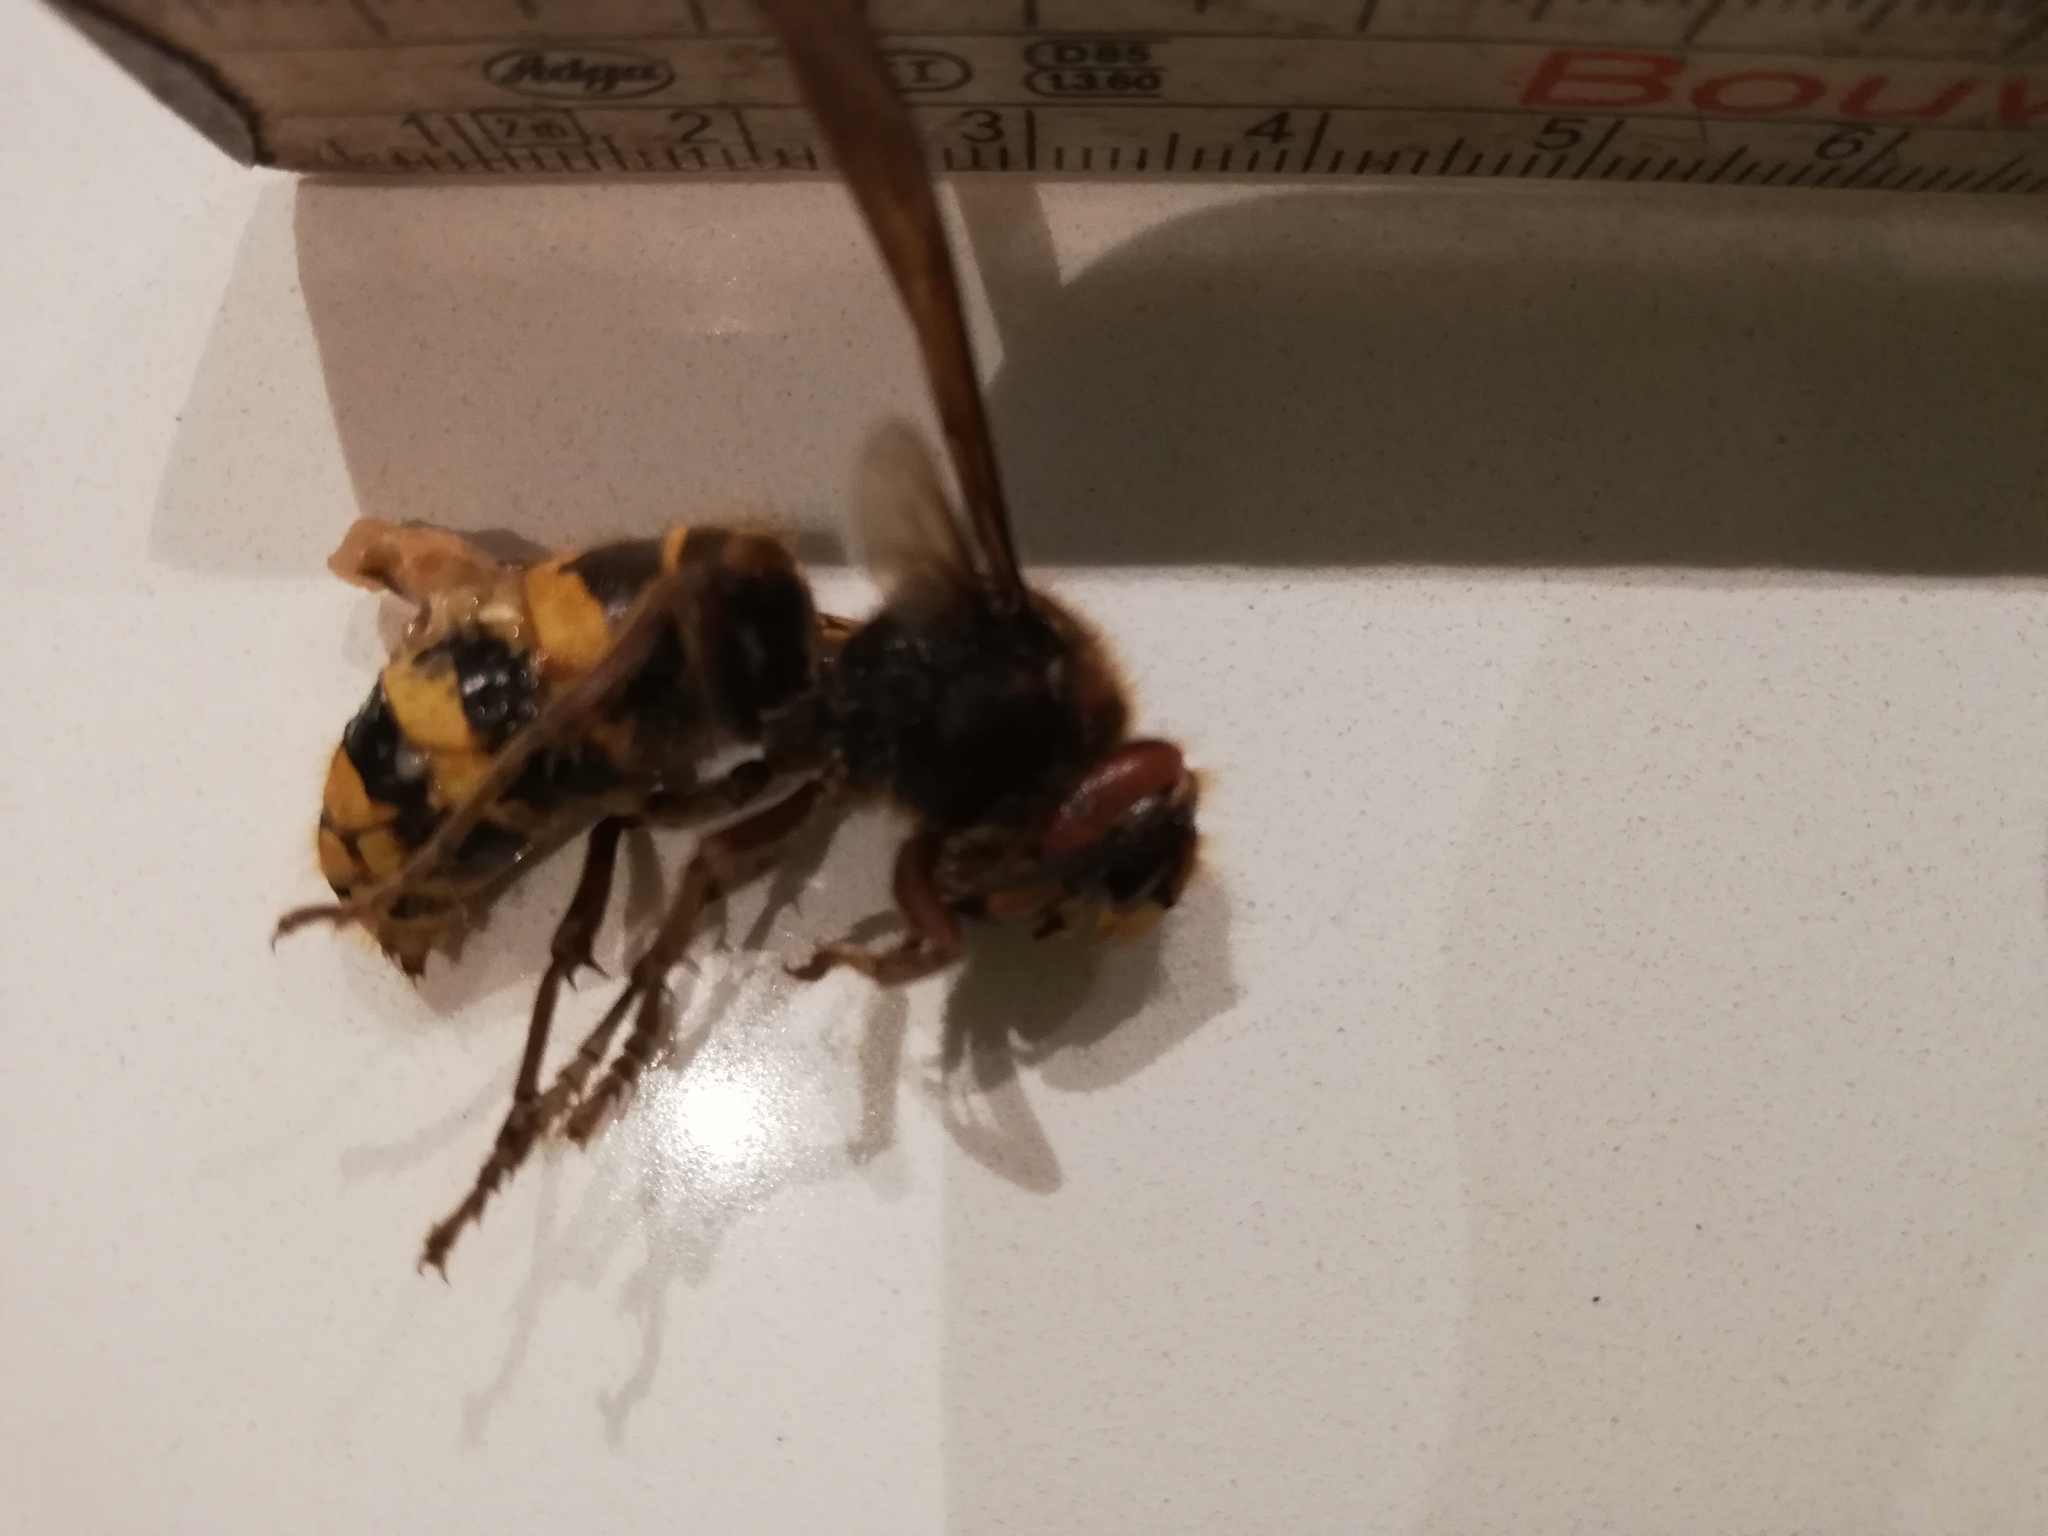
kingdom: Animalia
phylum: Arthropoda
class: Insecta
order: Hymenoptera
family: Vespidae
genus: Vespa
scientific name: Vespa crabro
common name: Hornet
